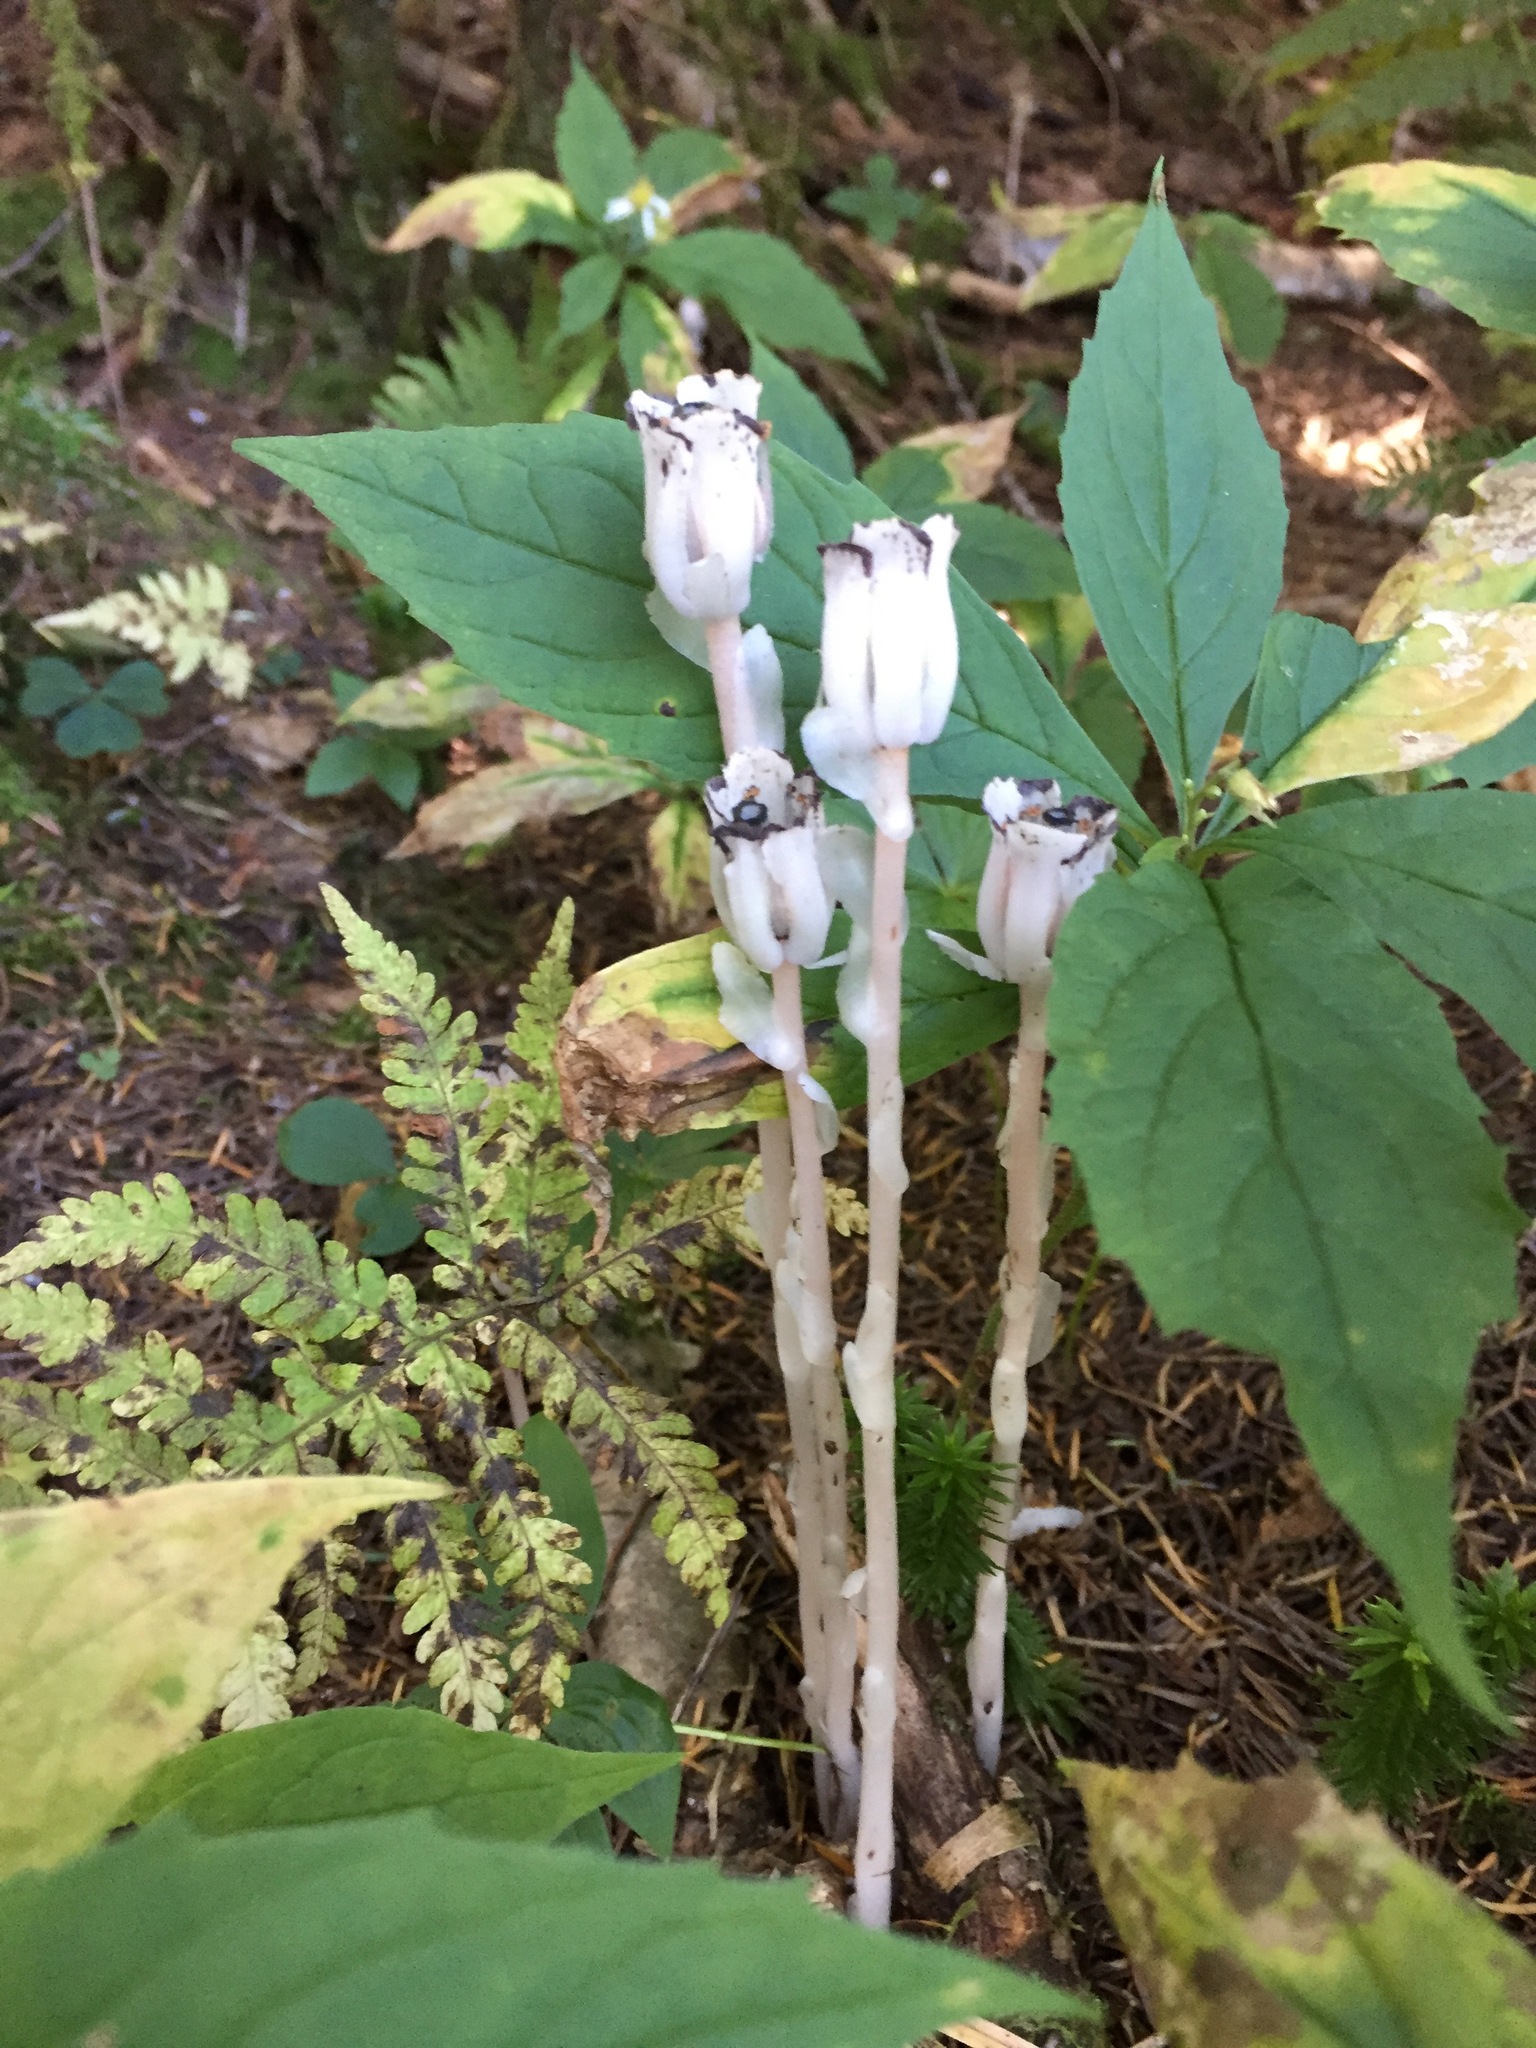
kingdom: Plantae
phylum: Tracheophyta
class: Magnoliopsida
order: Ericales
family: Ericaceae
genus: Monotropa
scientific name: Monotropa uniflora
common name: Convulsion root
